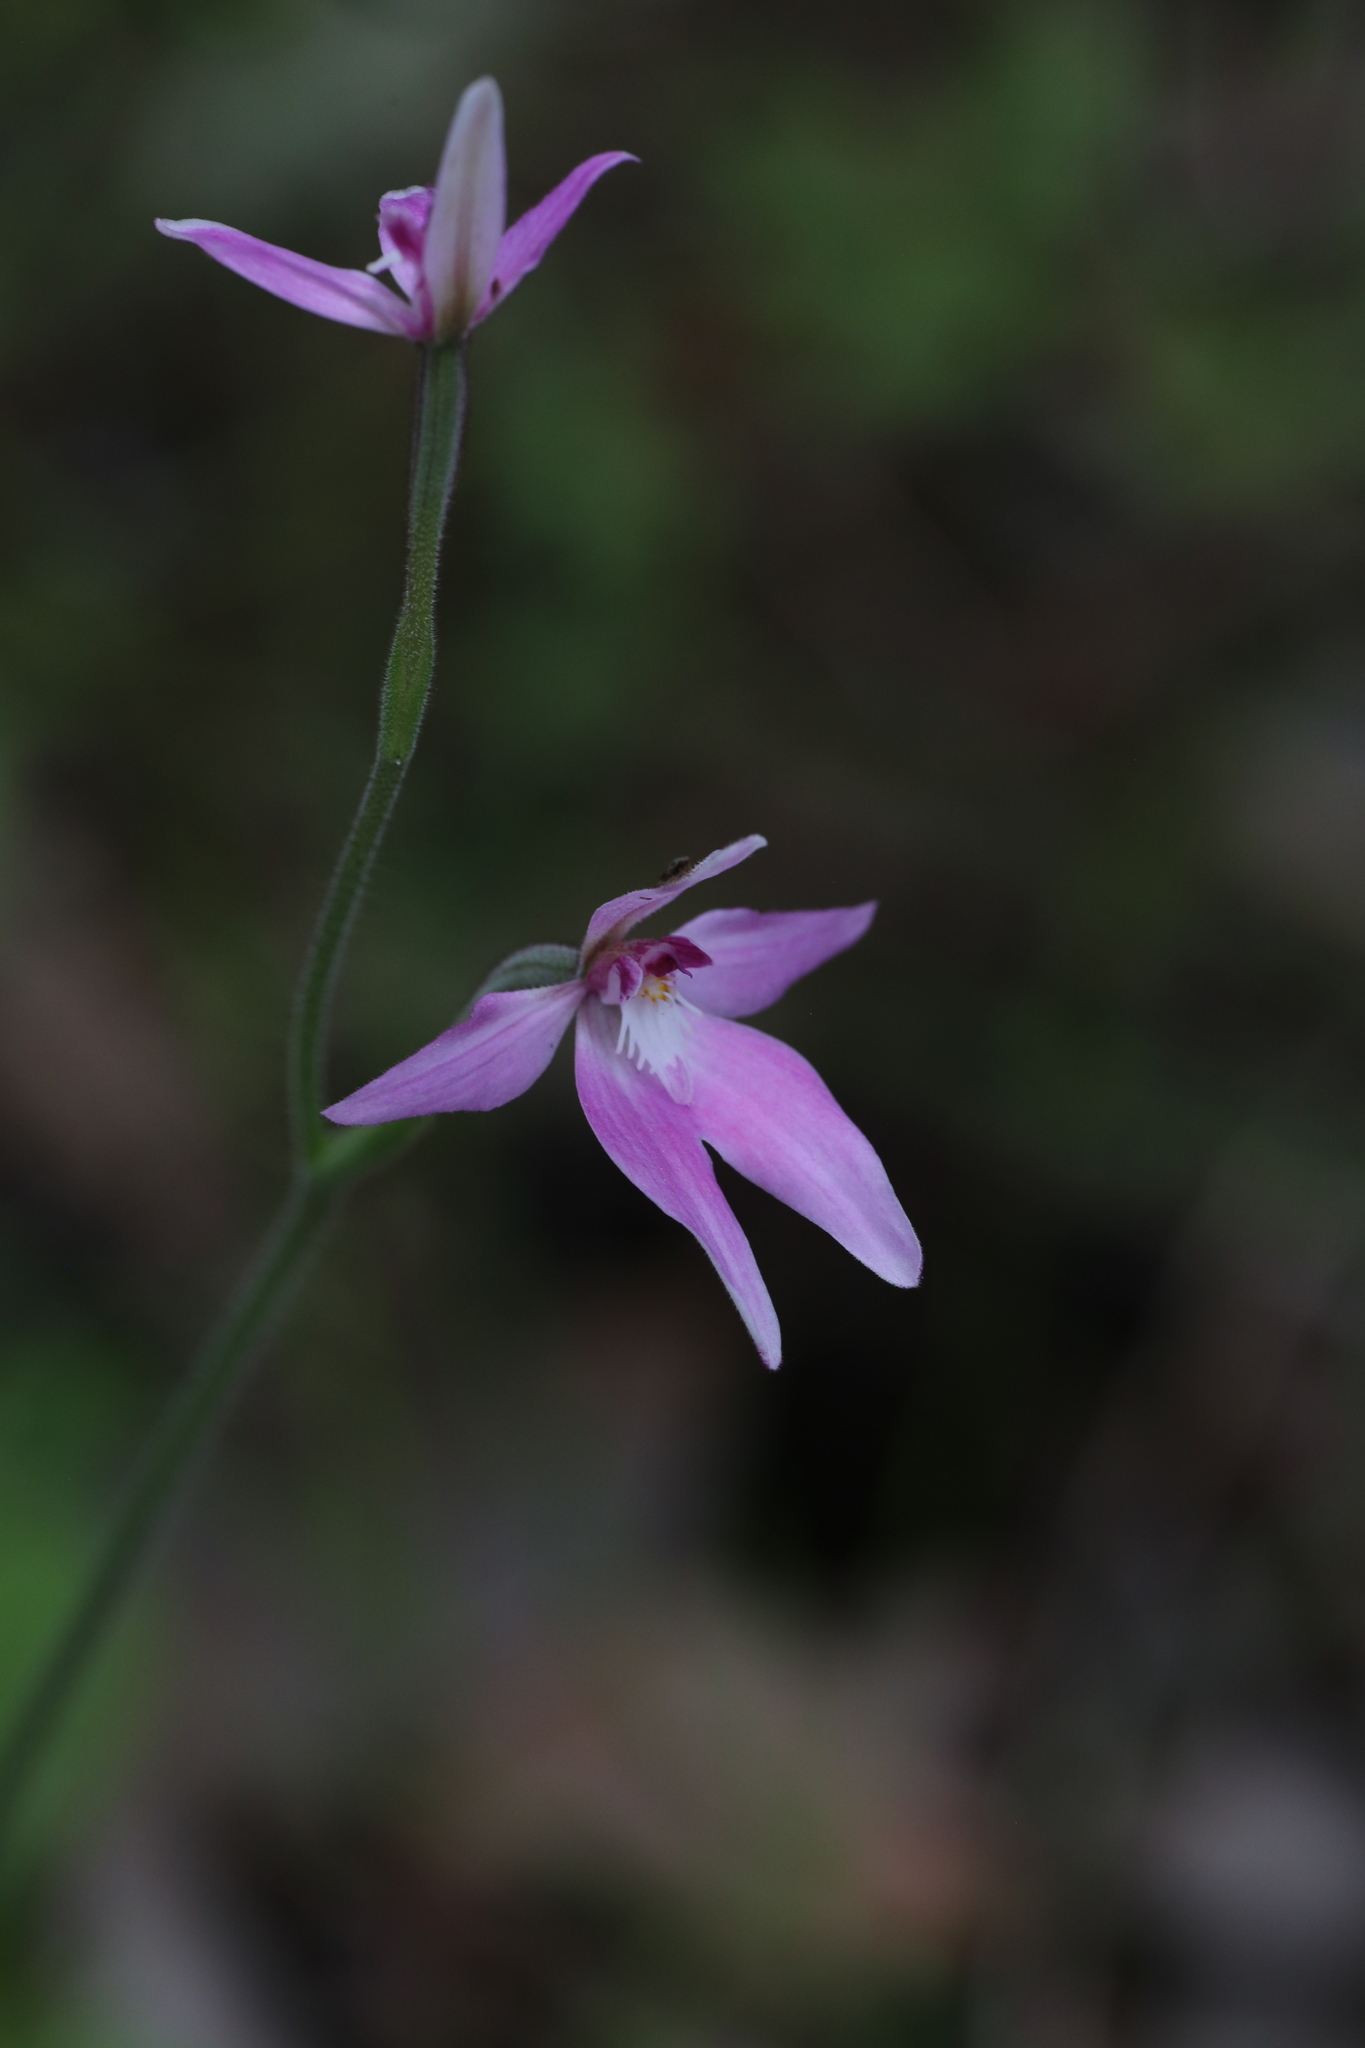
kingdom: Plantae
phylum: Tracheophyta
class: Liliopsida
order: Asparagales
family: Orchidaceae
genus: Caladenia
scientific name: Caladenia latifolia
